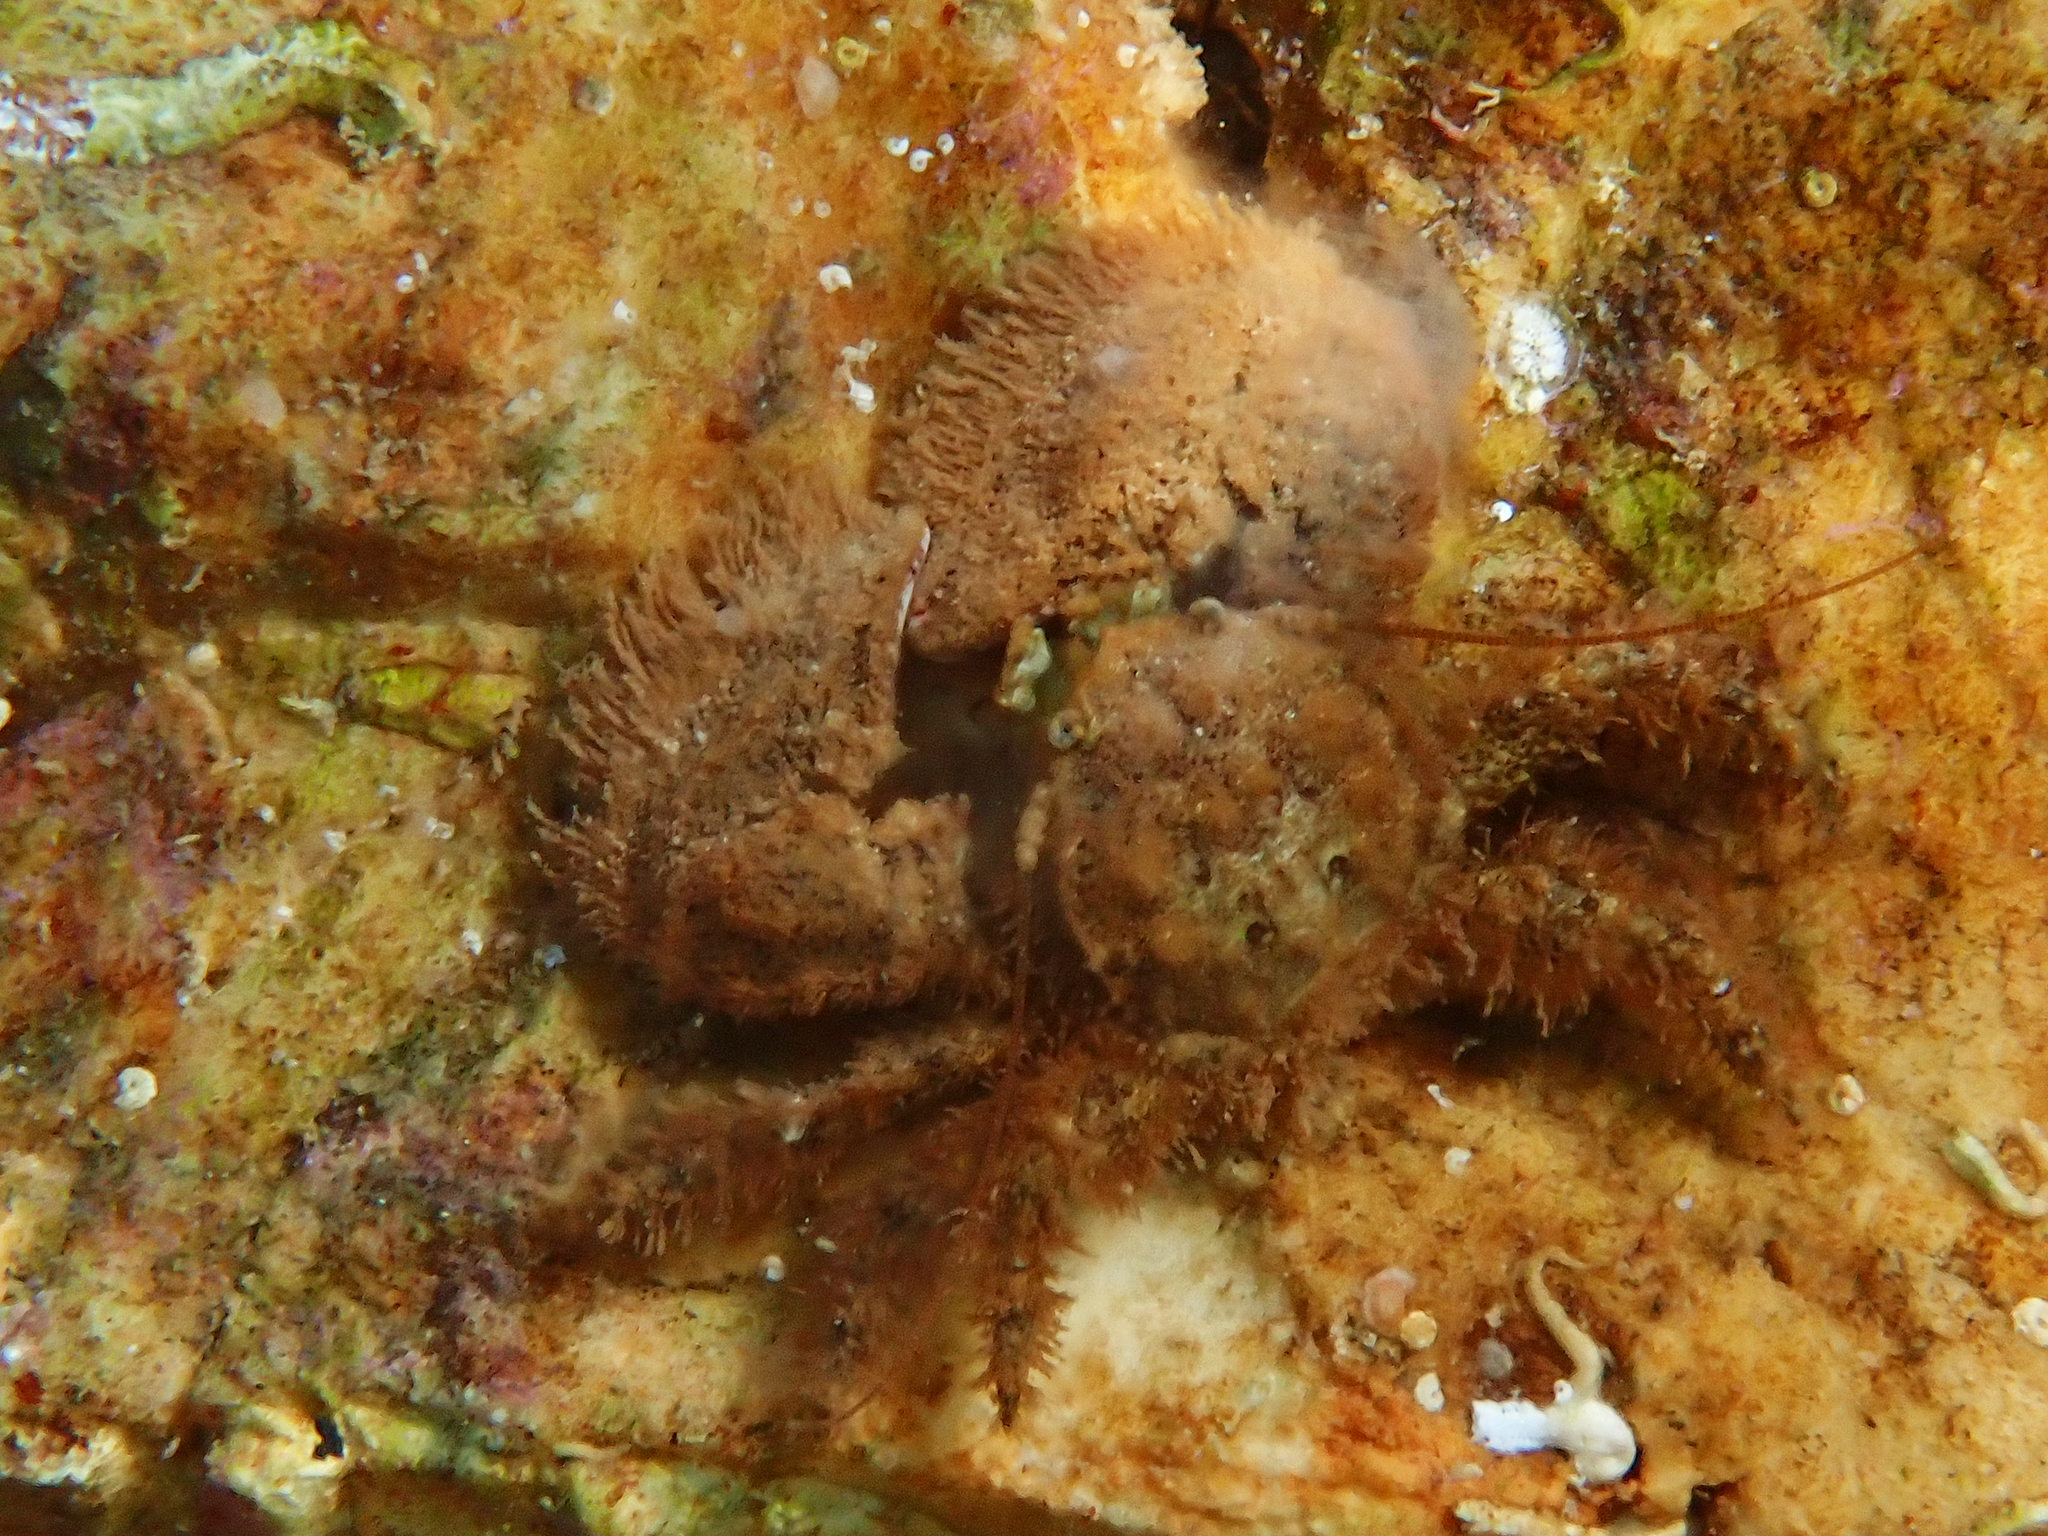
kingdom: Animalia
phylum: Arthropoda
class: Malacostraca
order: Decapoda
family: Porcellanidae
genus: Porcellana
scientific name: Porcellana platycheles
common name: Porcelain crab
